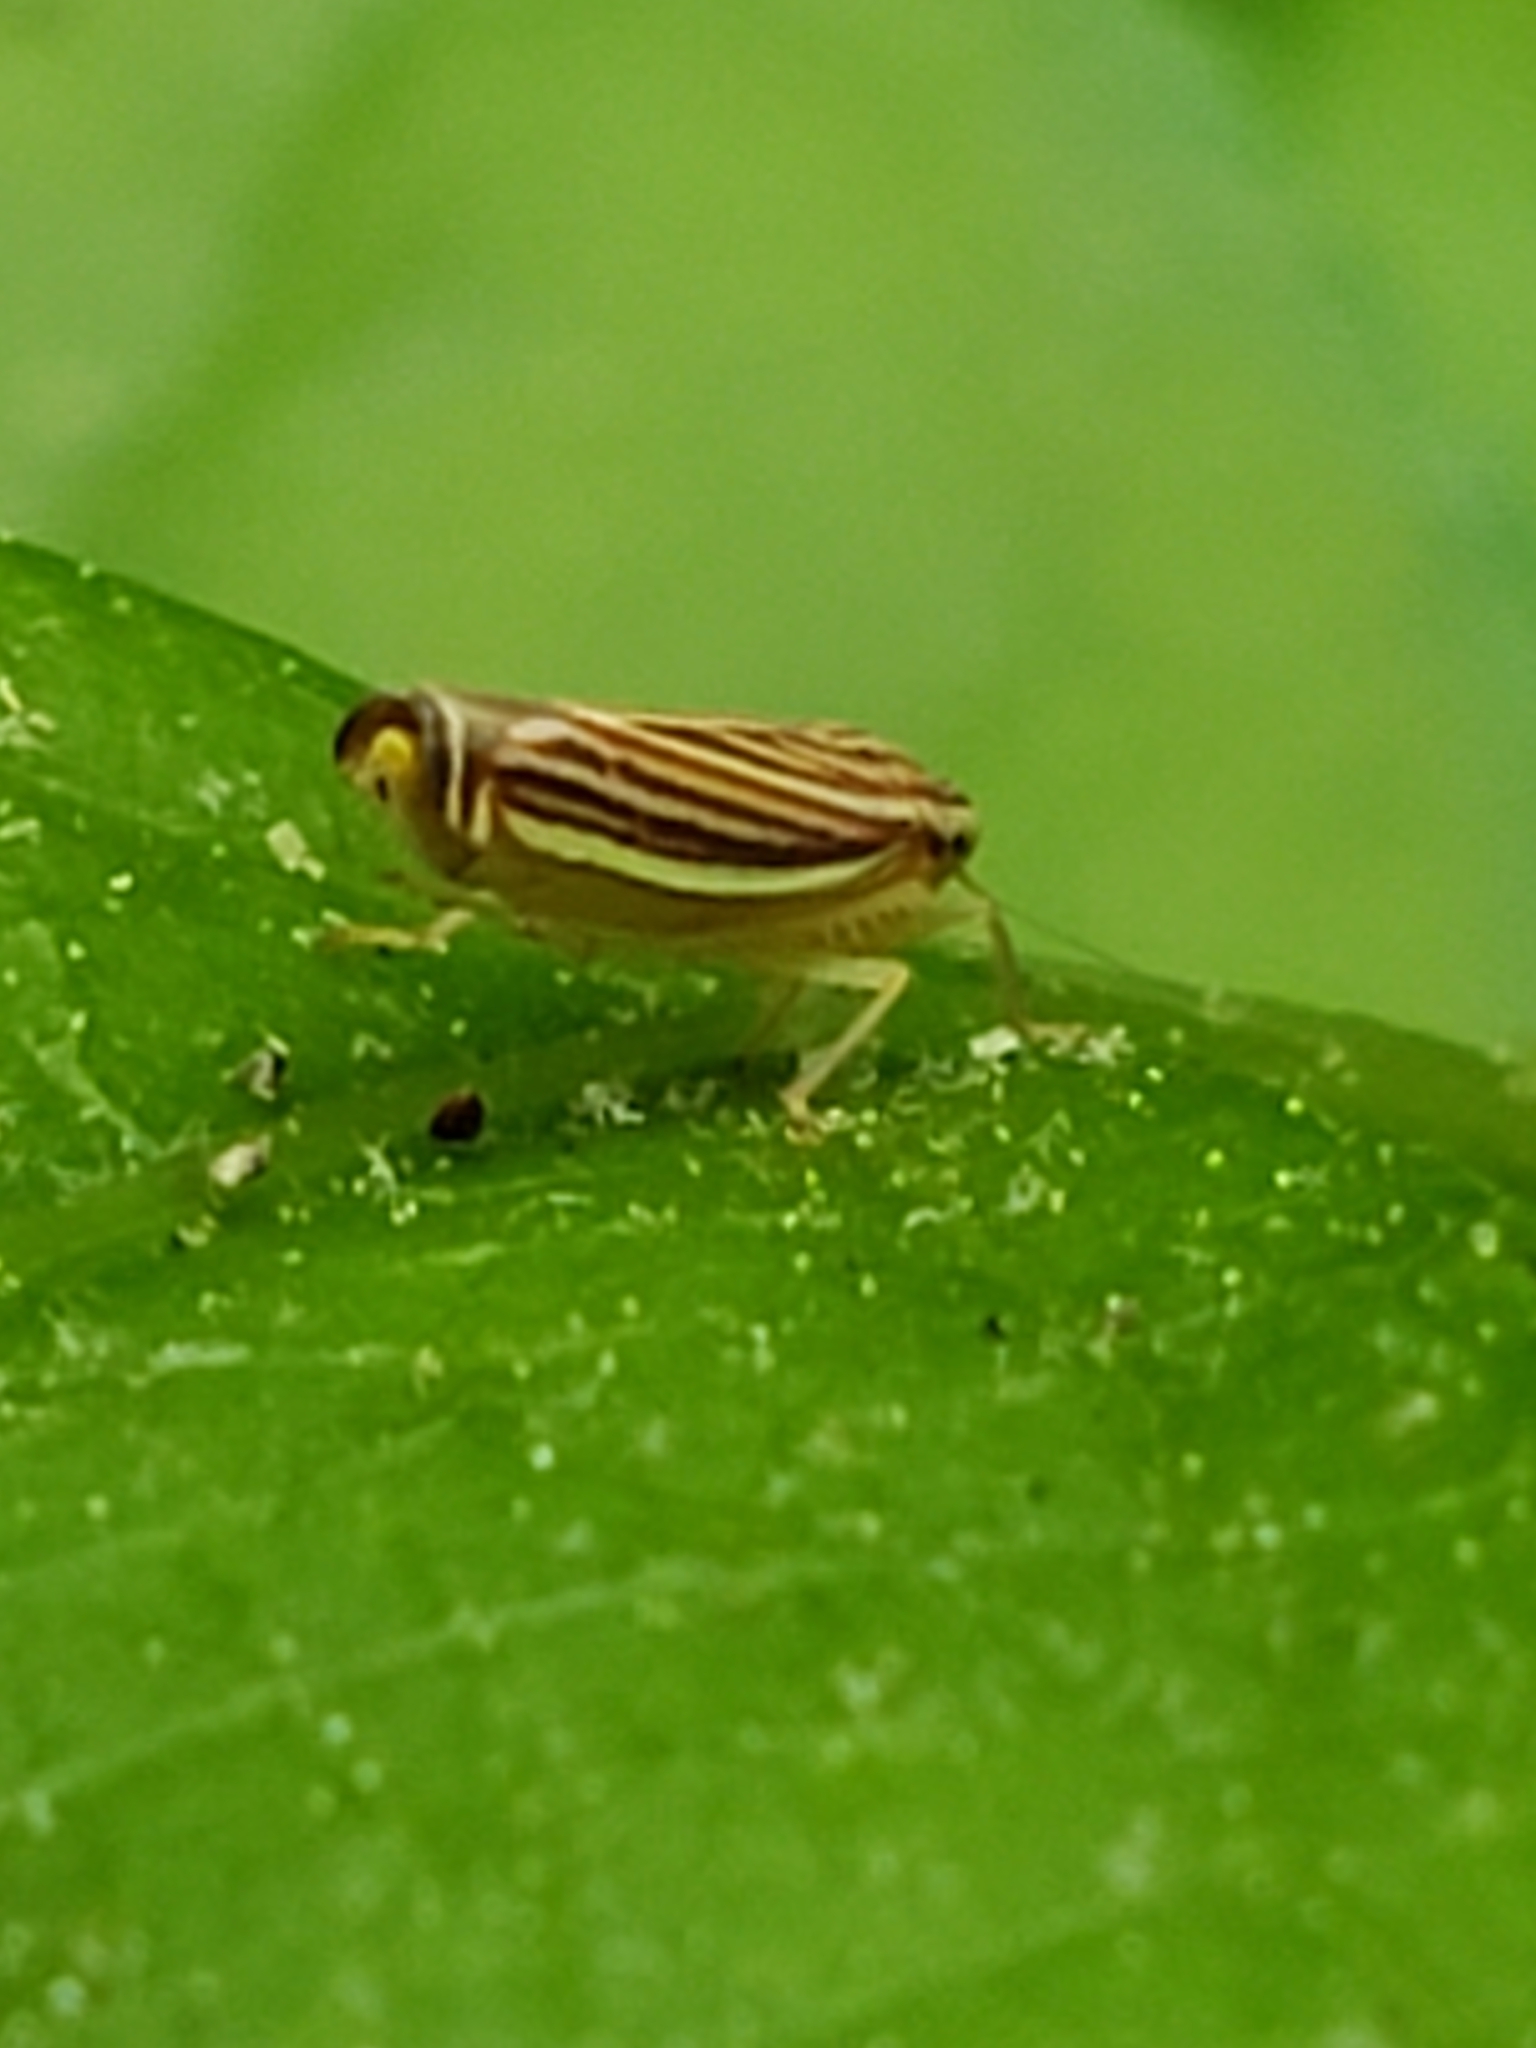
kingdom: Animalia
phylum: Arthropoda
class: Insecta
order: Hemiptera
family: Cicadellidae
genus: Sibovia
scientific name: Sibovia occatoria
